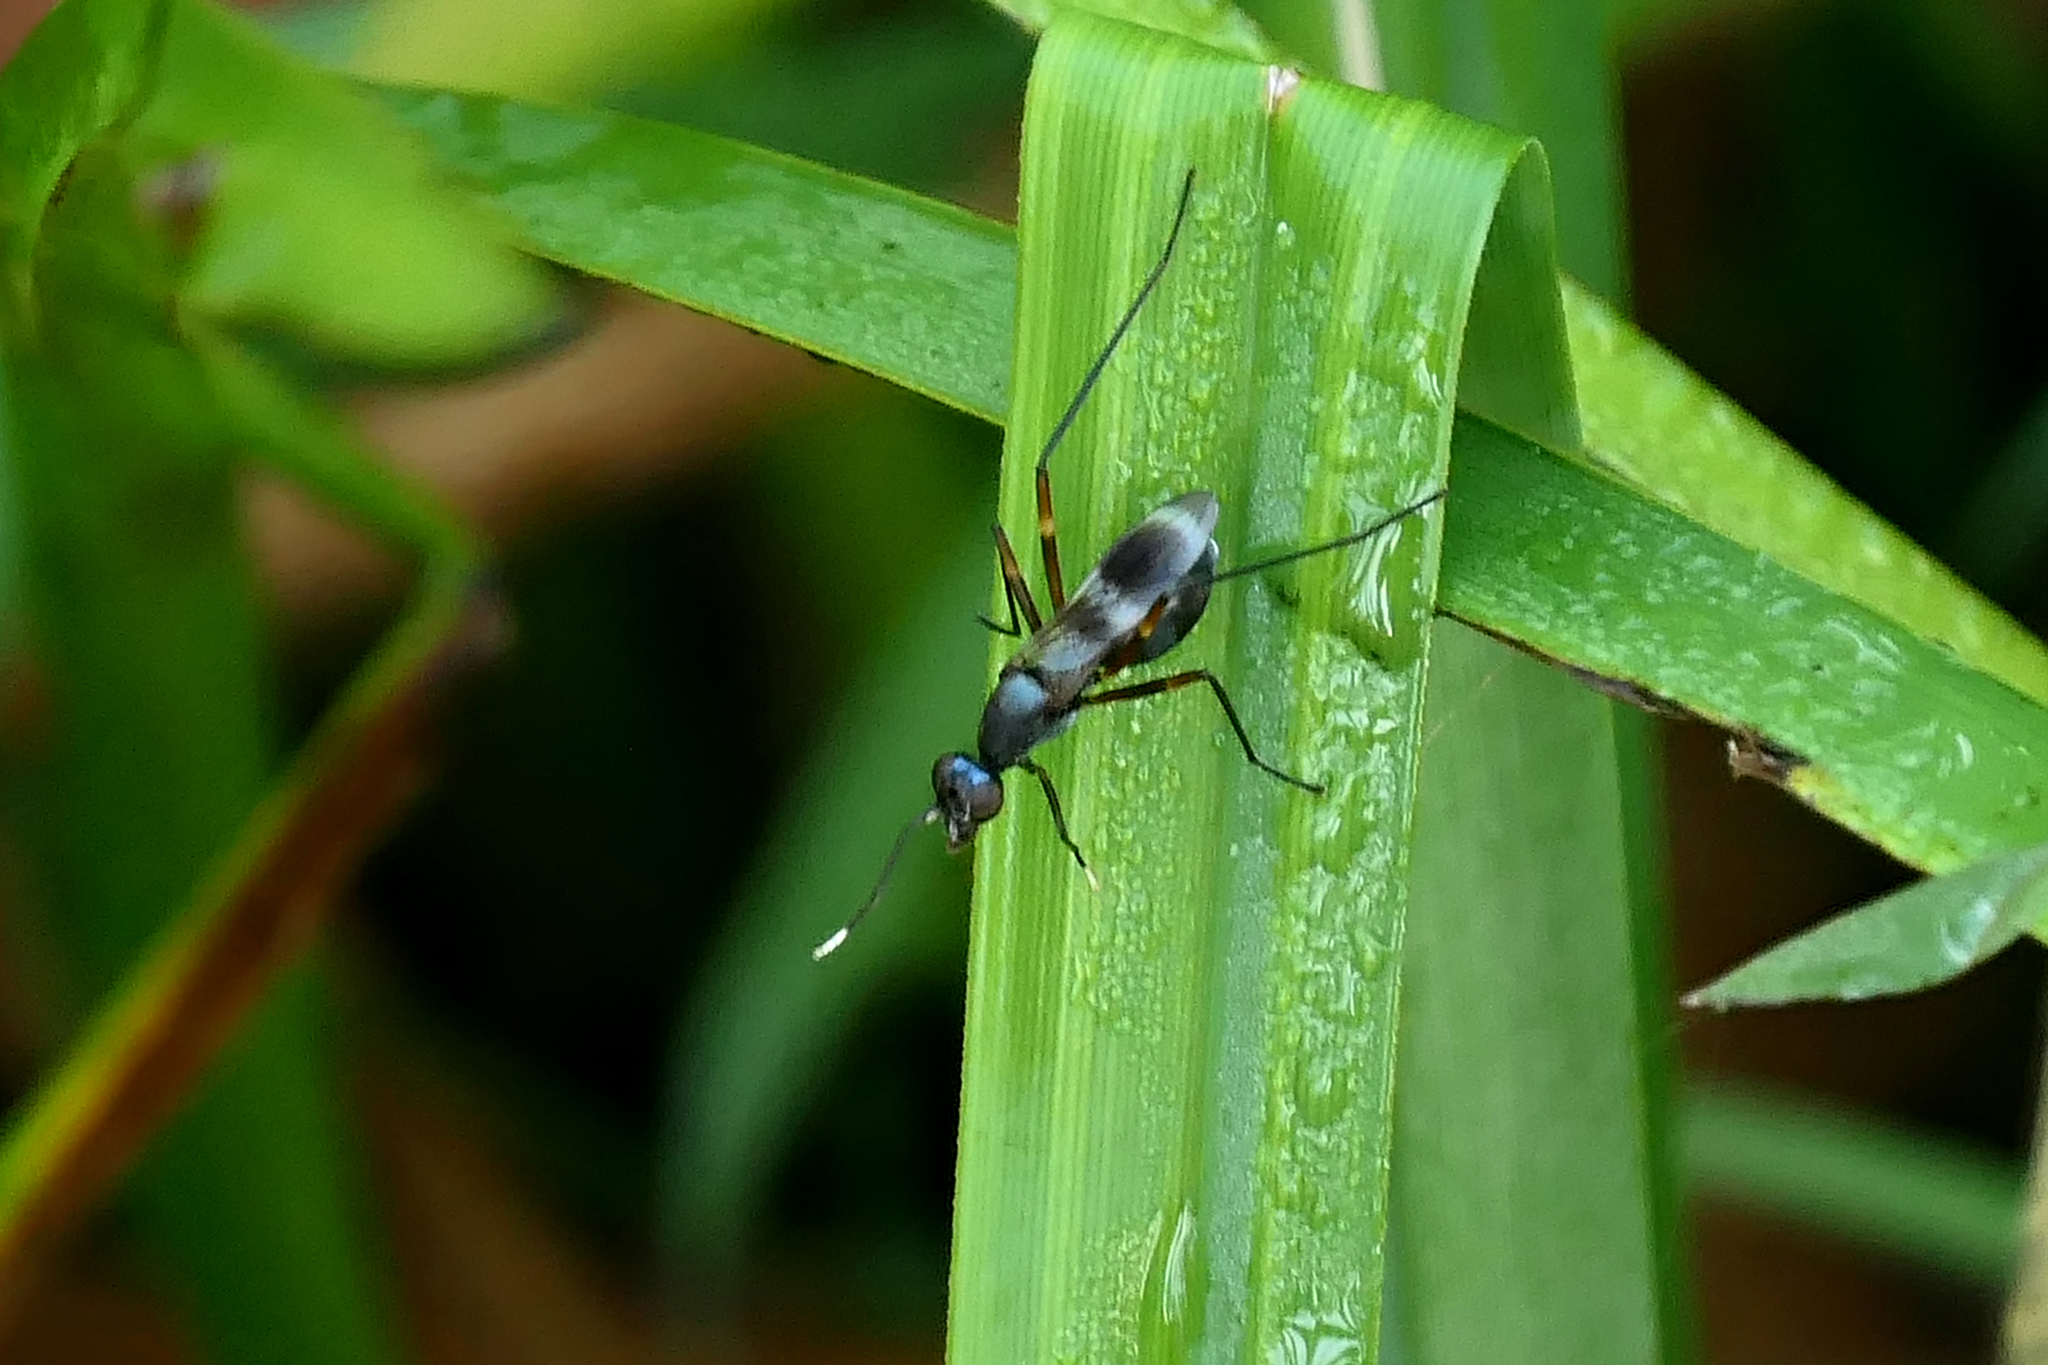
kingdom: Animalia
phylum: Arthropoda
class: Insecta
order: Diptera
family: Micropezidae
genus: Taeniaptera
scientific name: Taeniaptera trivittata
